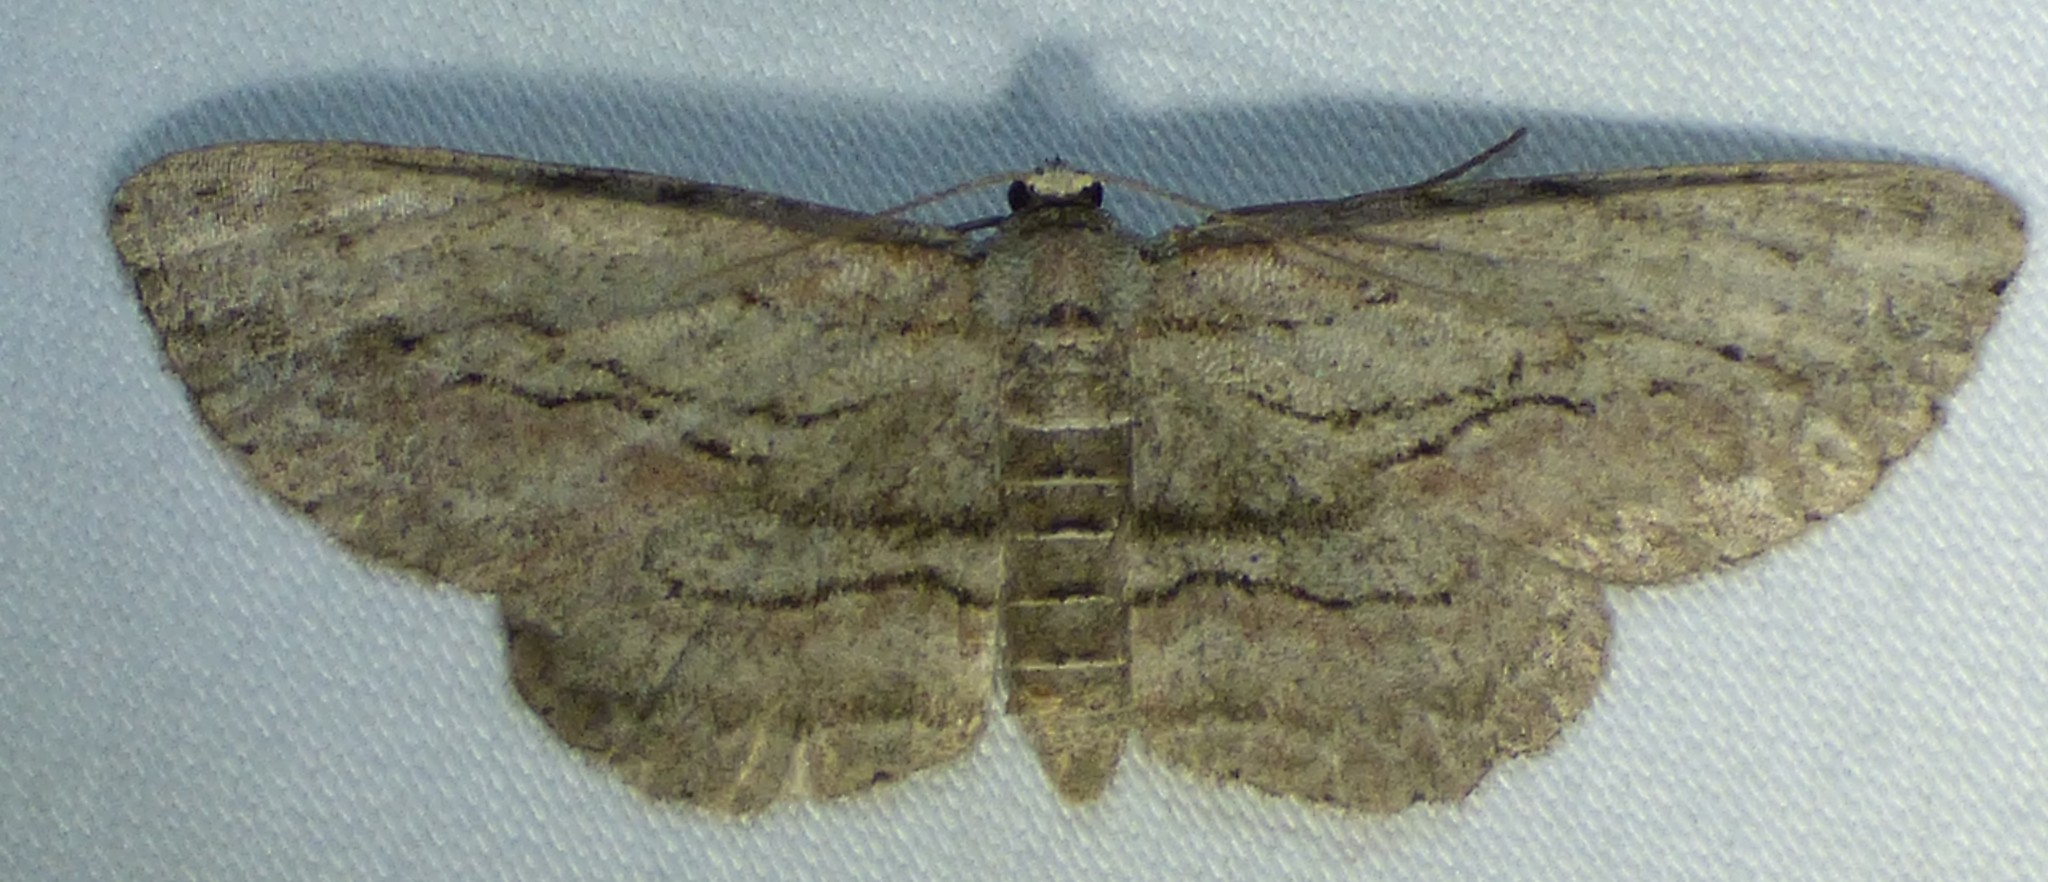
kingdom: Animalia
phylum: Arthropoda
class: Insecta
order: Lepidoptera
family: Geometridae
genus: Glena
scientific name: Glena plumosaria
